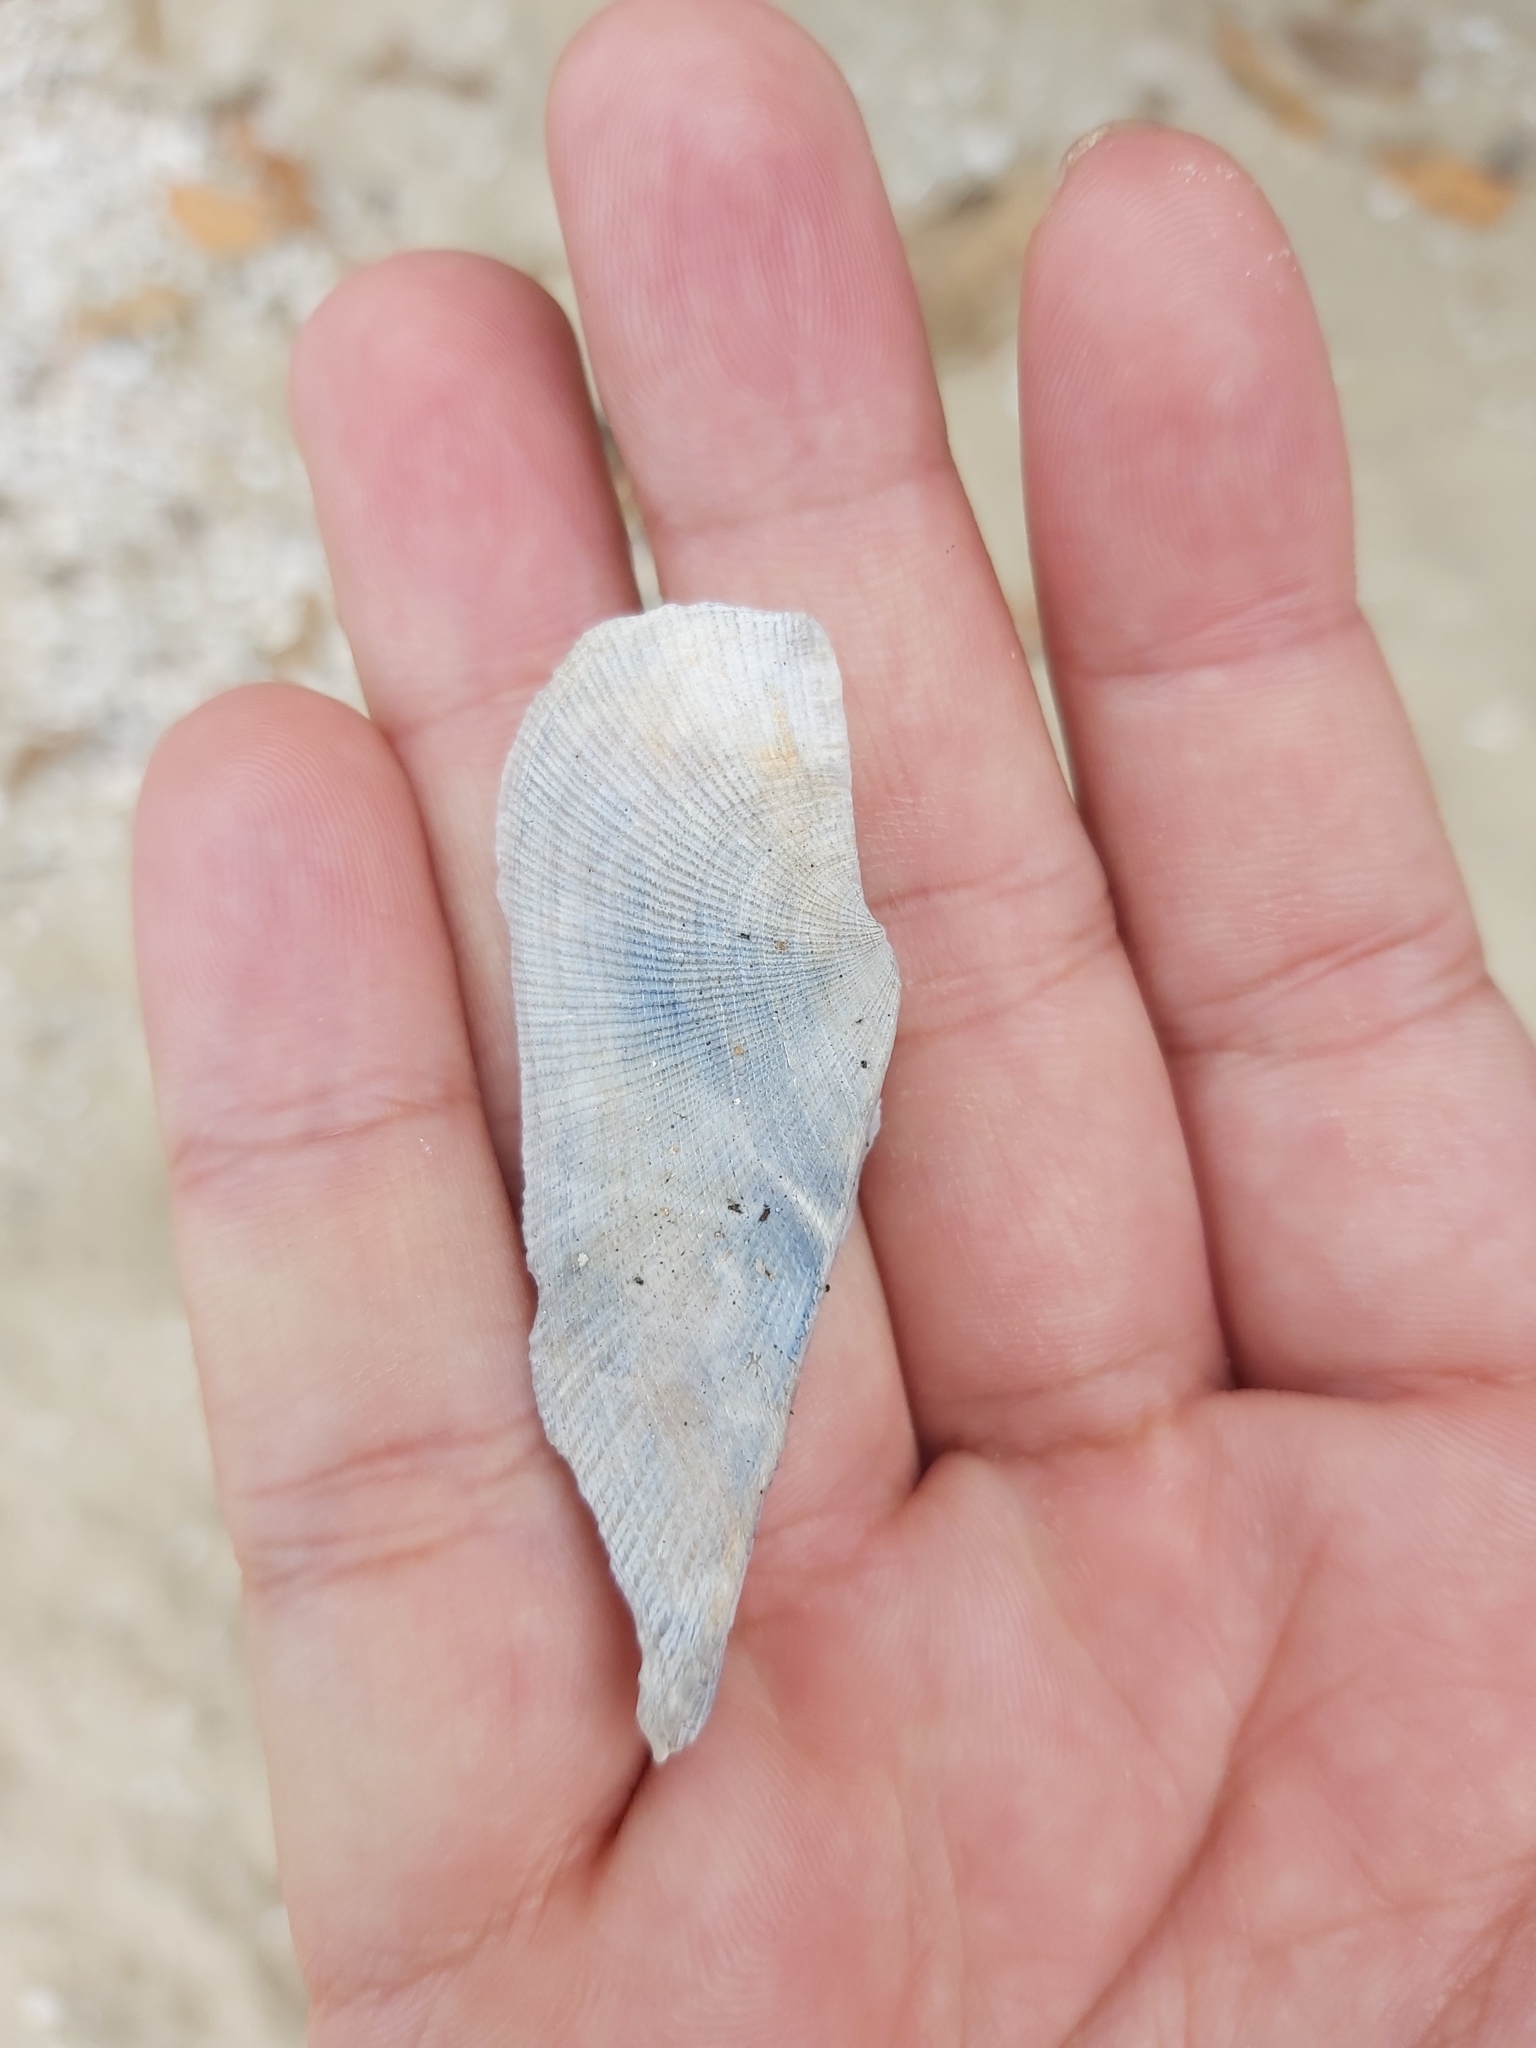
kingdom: Animalia
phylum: Mollusca
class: Bivalvia
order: Arcida
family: Arcidae
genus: Trisidos
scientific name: Trisidos tortuosa
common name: Propeller ark
